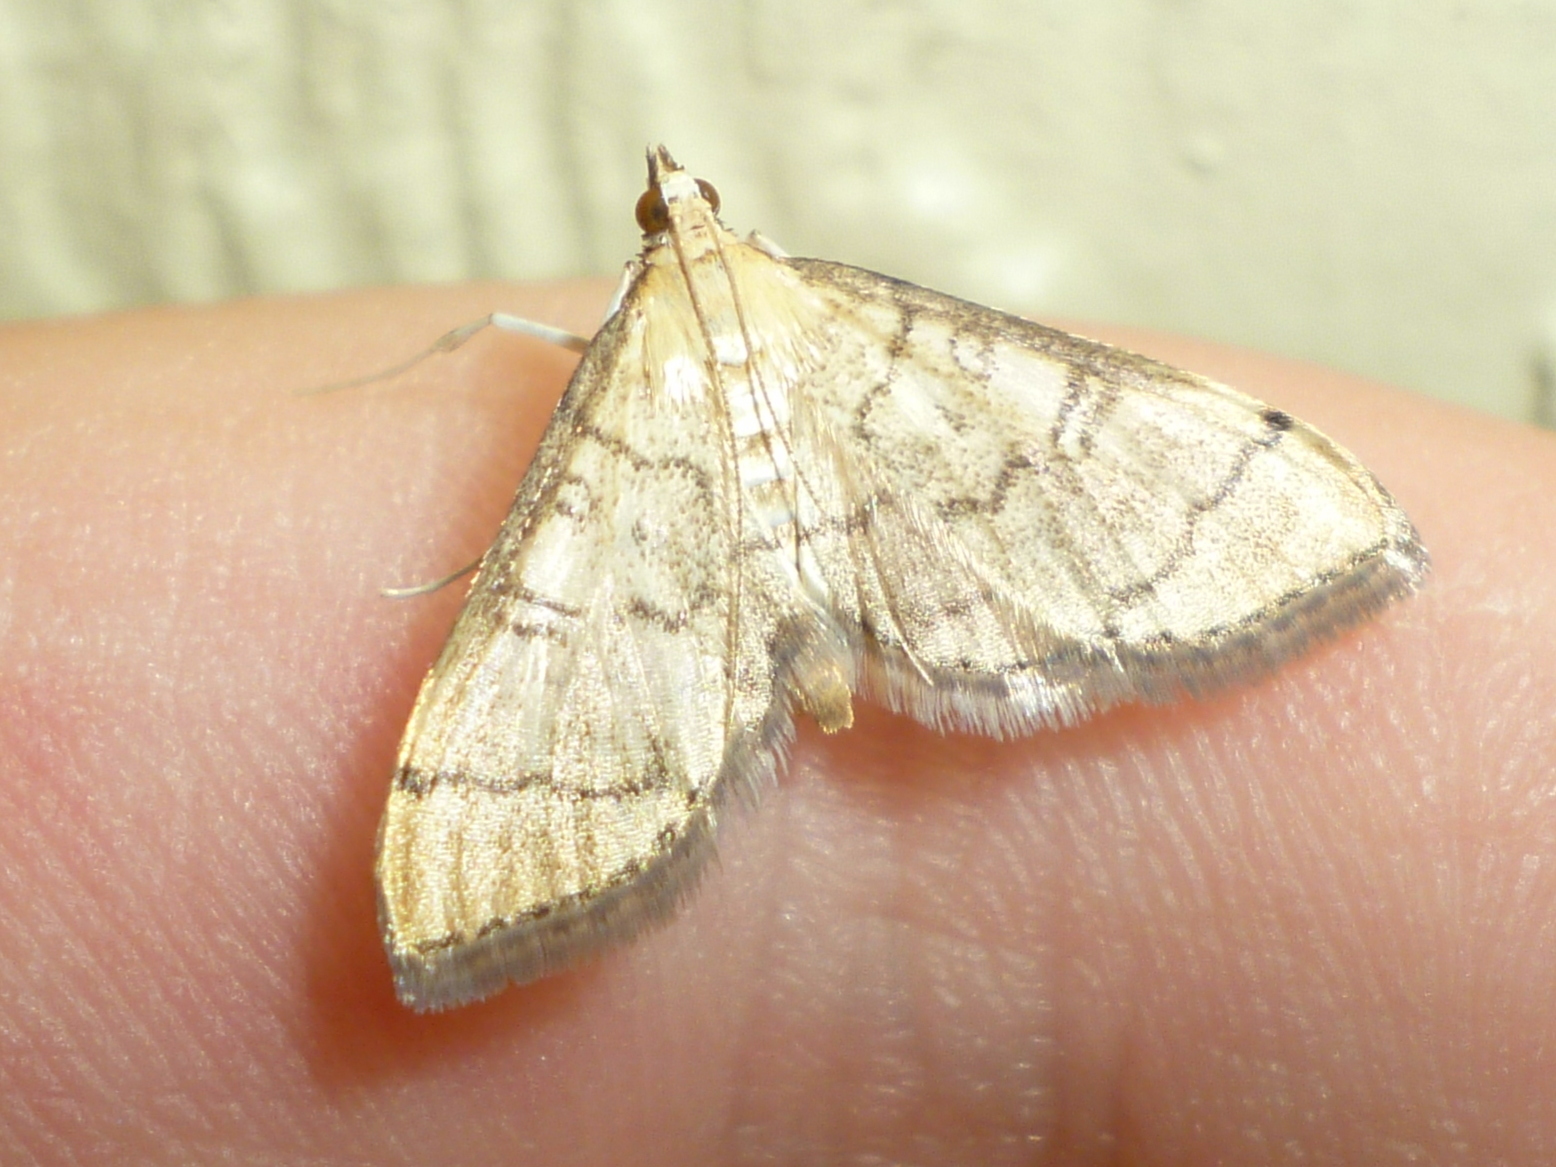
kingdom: Animalia
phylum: Arthropoda
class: Insecta
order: Lepidoptera
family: Crambidae
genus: Lamprosema
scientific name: Lamprosema Blepharomastix ranalis
